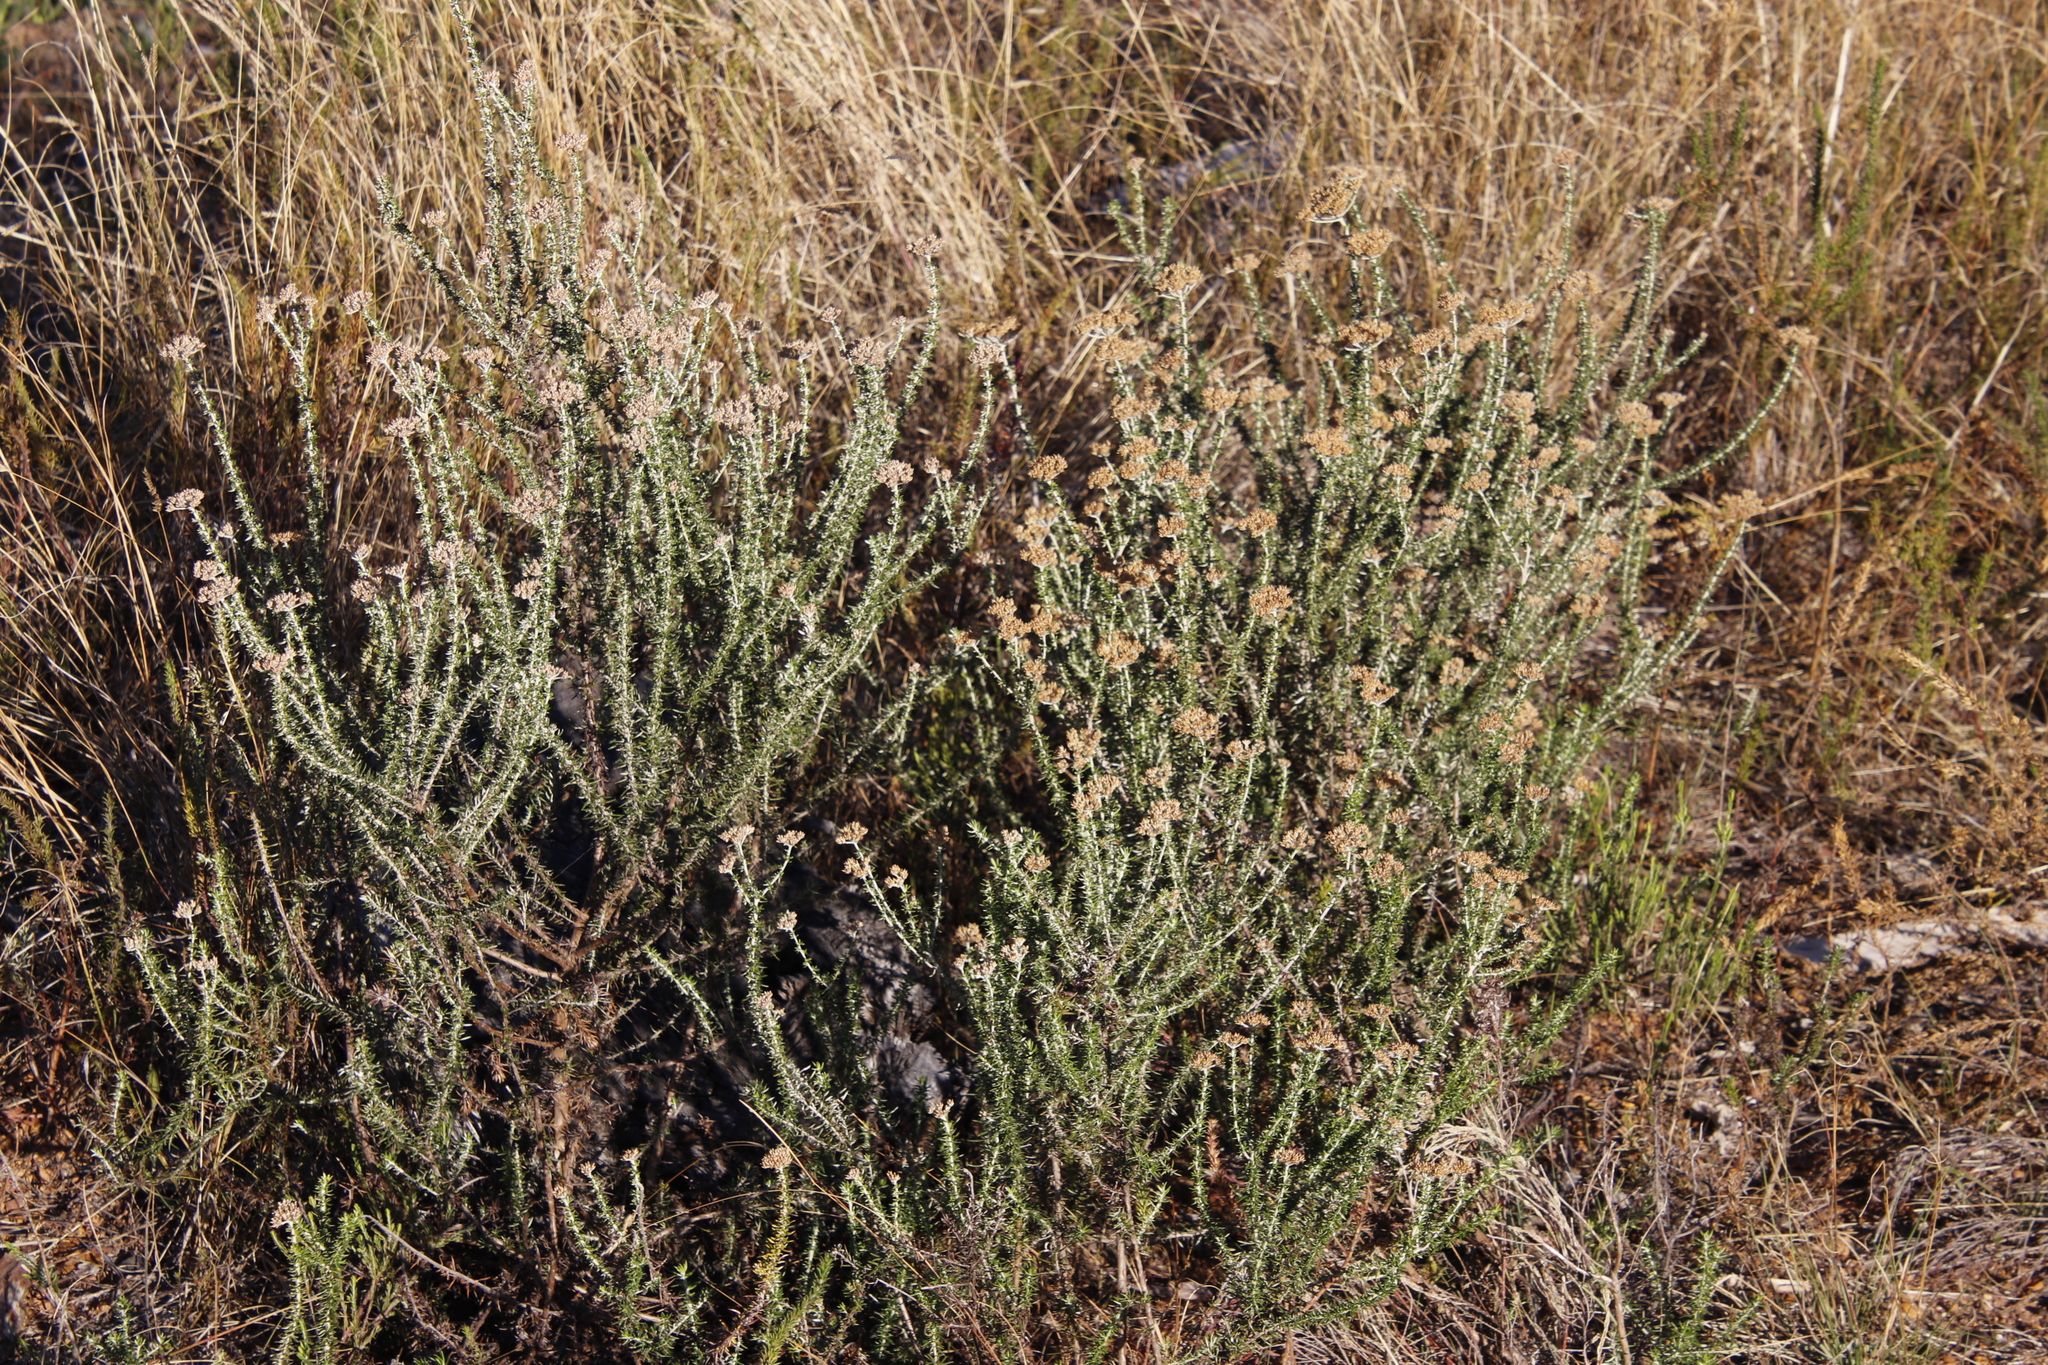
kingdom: Plantae
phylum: Tracheophyta
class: Magnoliopsida
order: Asterales
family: Asteraceae
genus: Metalasia
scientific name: Metalasia densa
